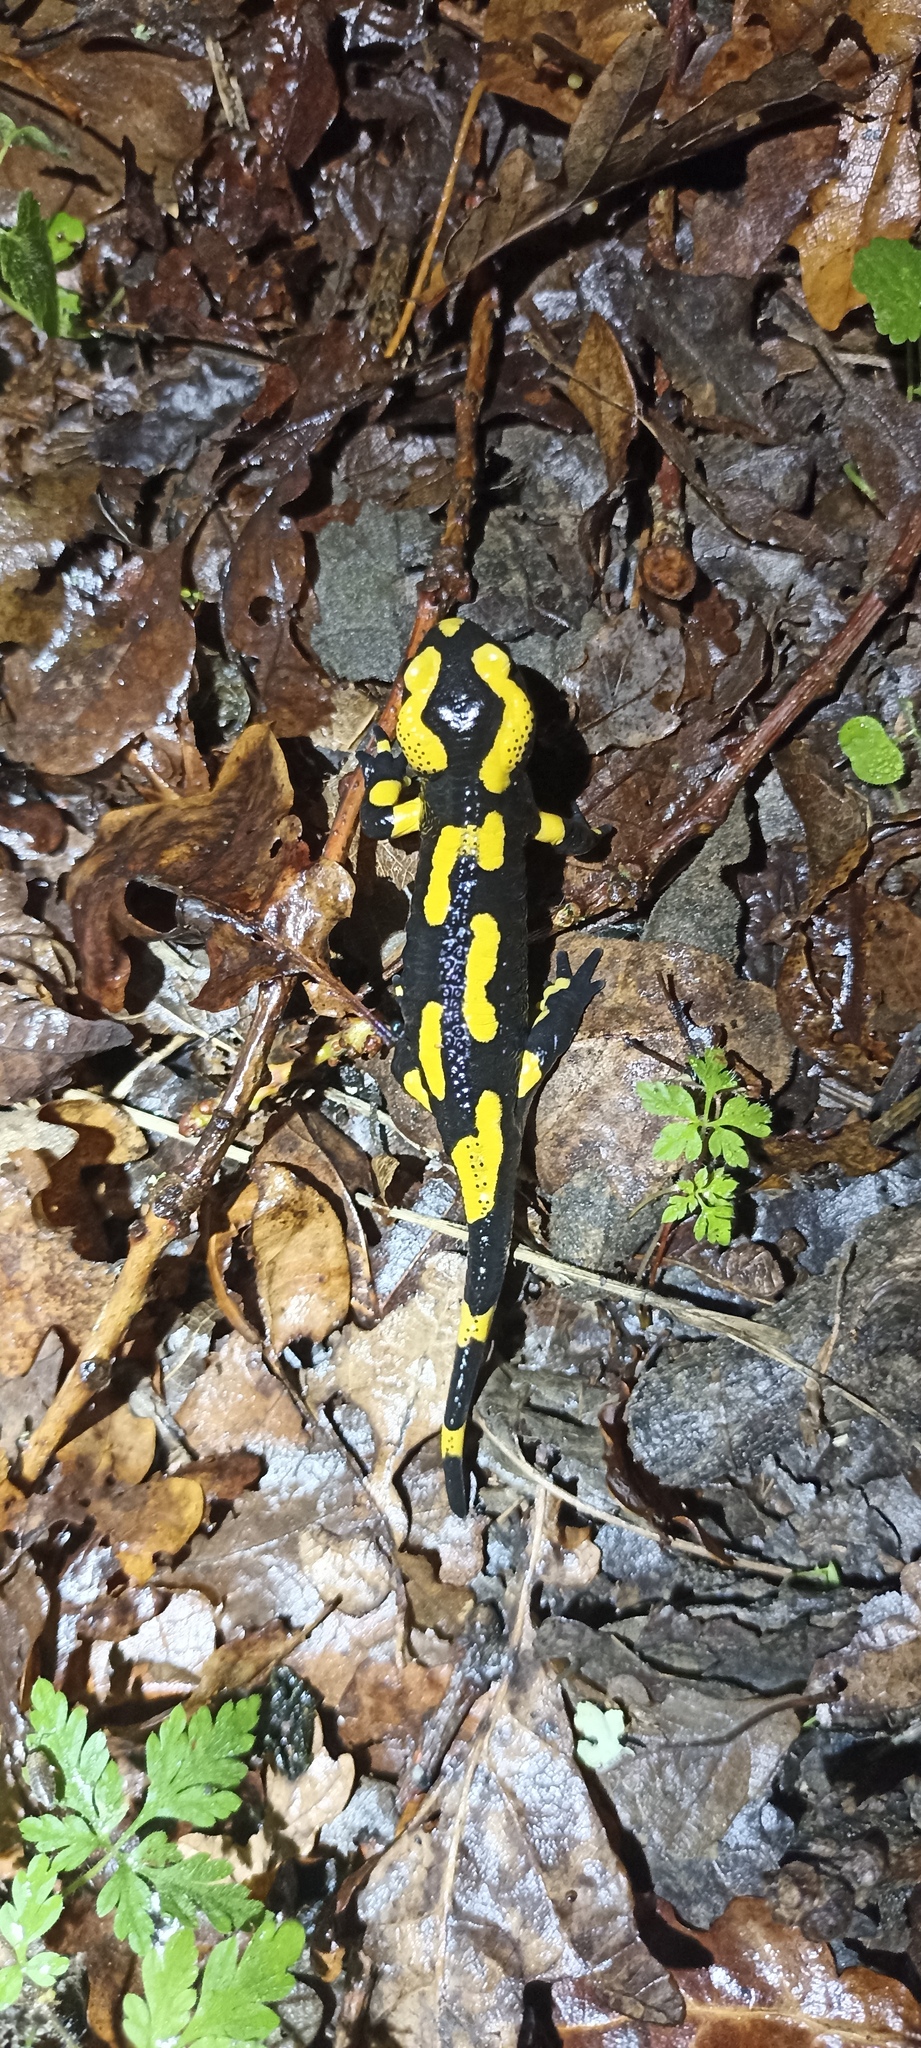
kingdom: Animalia
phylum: Chordata
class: Amphibia
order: Caudata
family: Salamandridae
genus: Salamandra
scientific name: Salamandra salamandra
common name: Fire salamander
